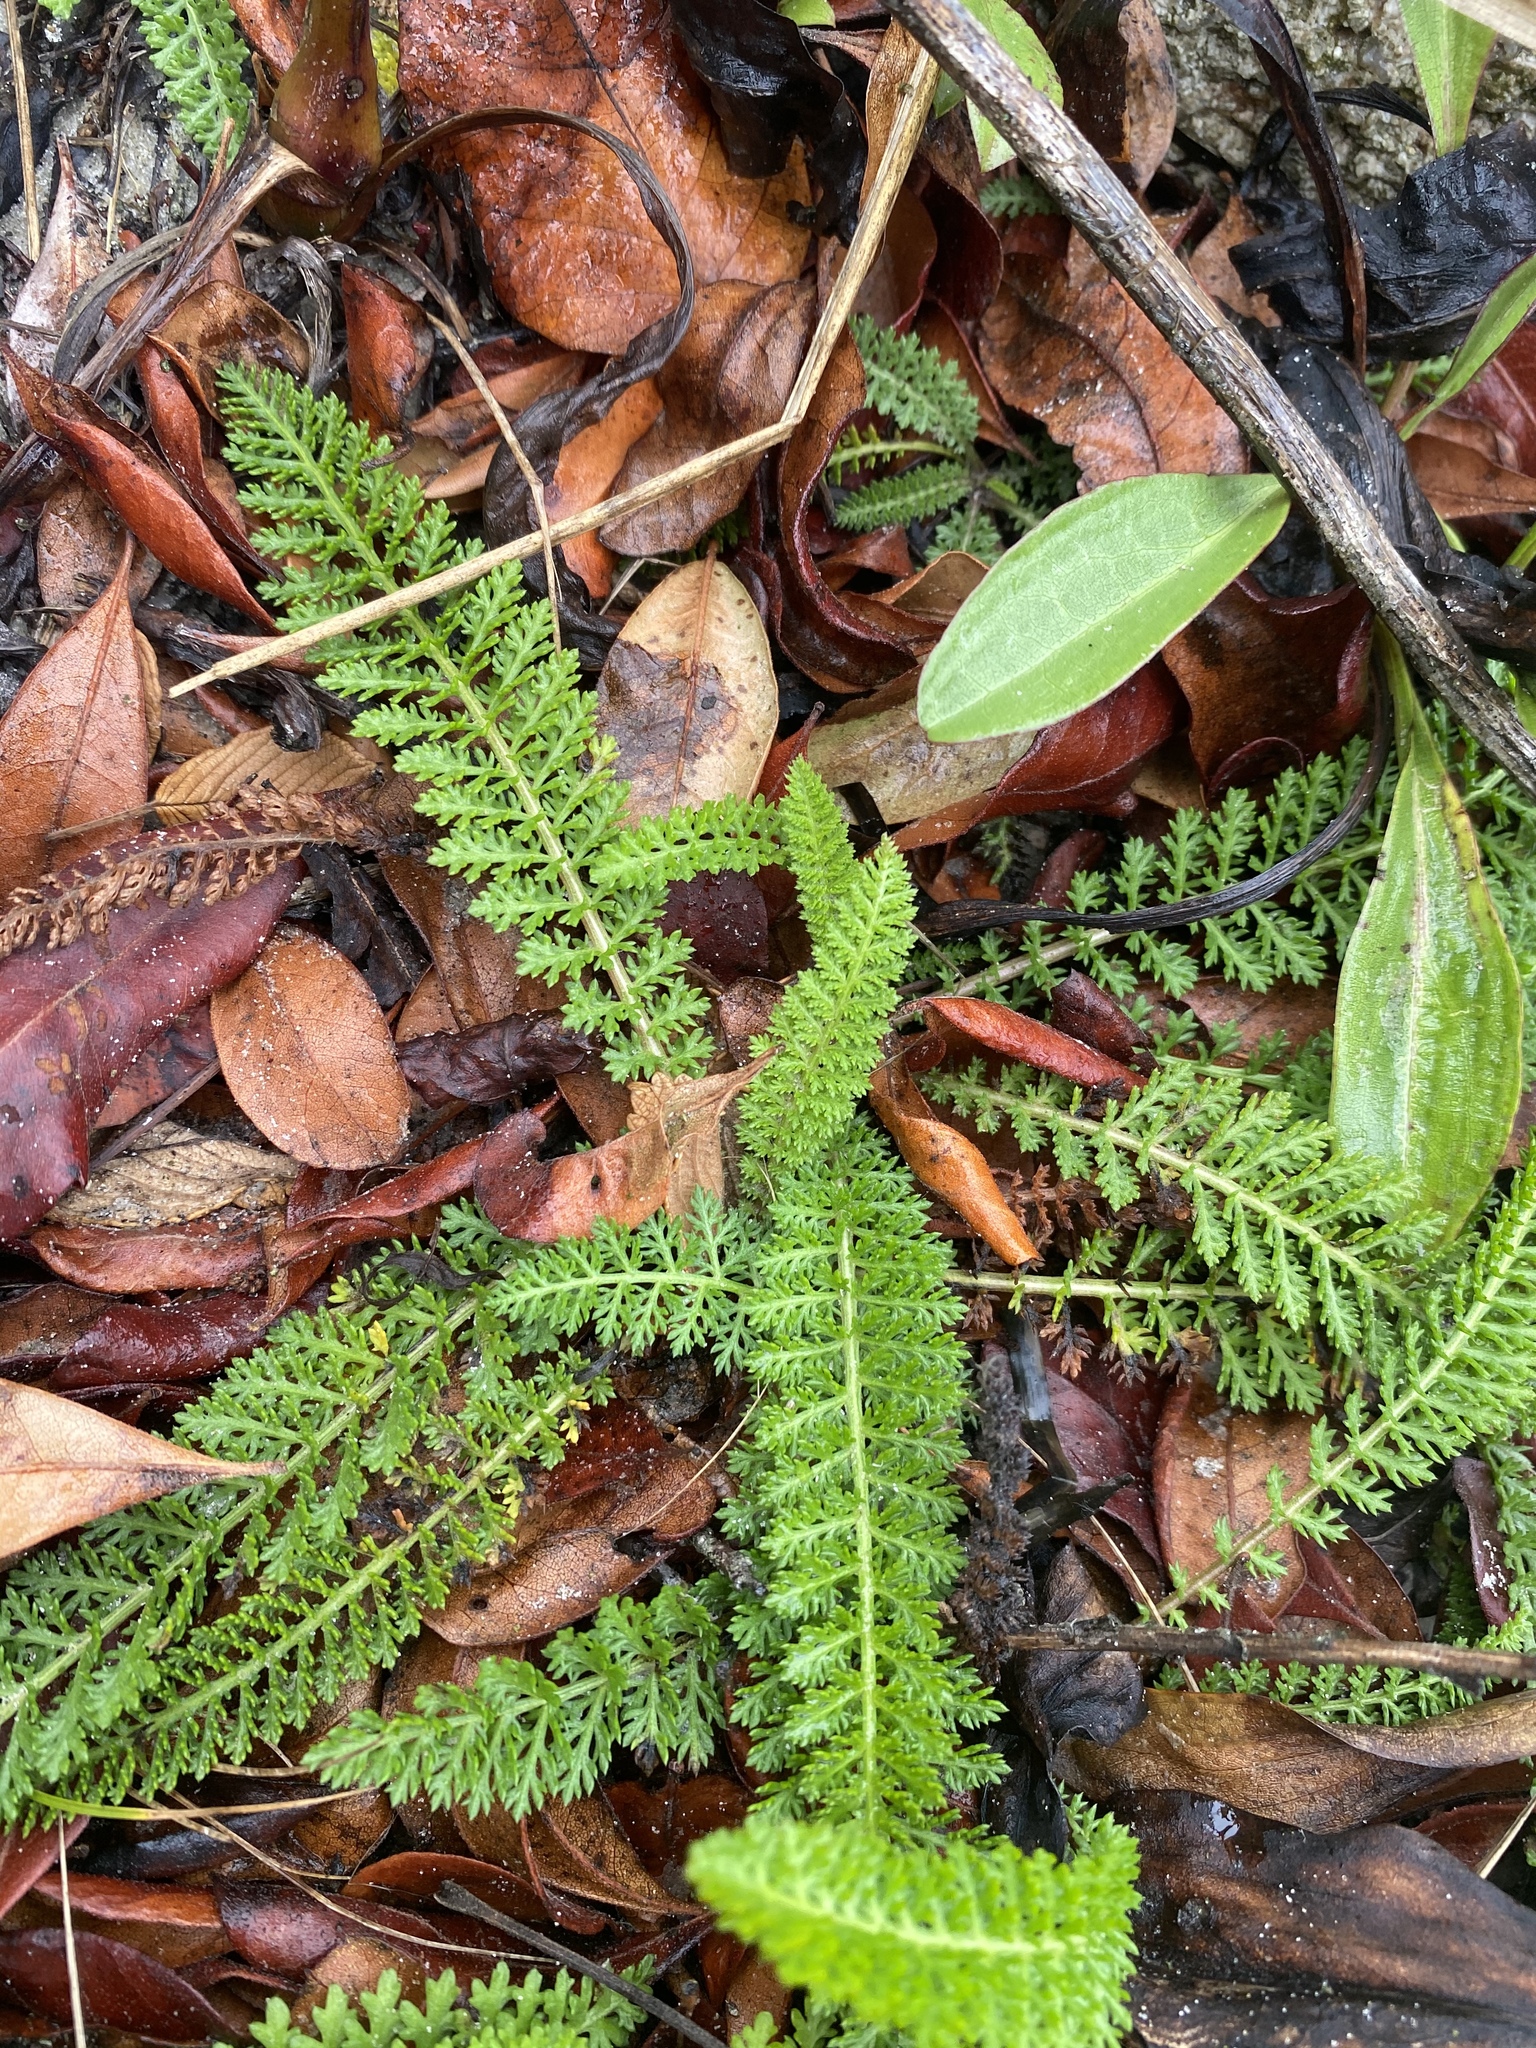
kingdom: Plantae
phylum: Tracheophyta
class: Magnoliopsida
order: Asterales
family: Asteraceae
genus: Achillea
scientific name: Achillea millefolium
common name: Yarrow
